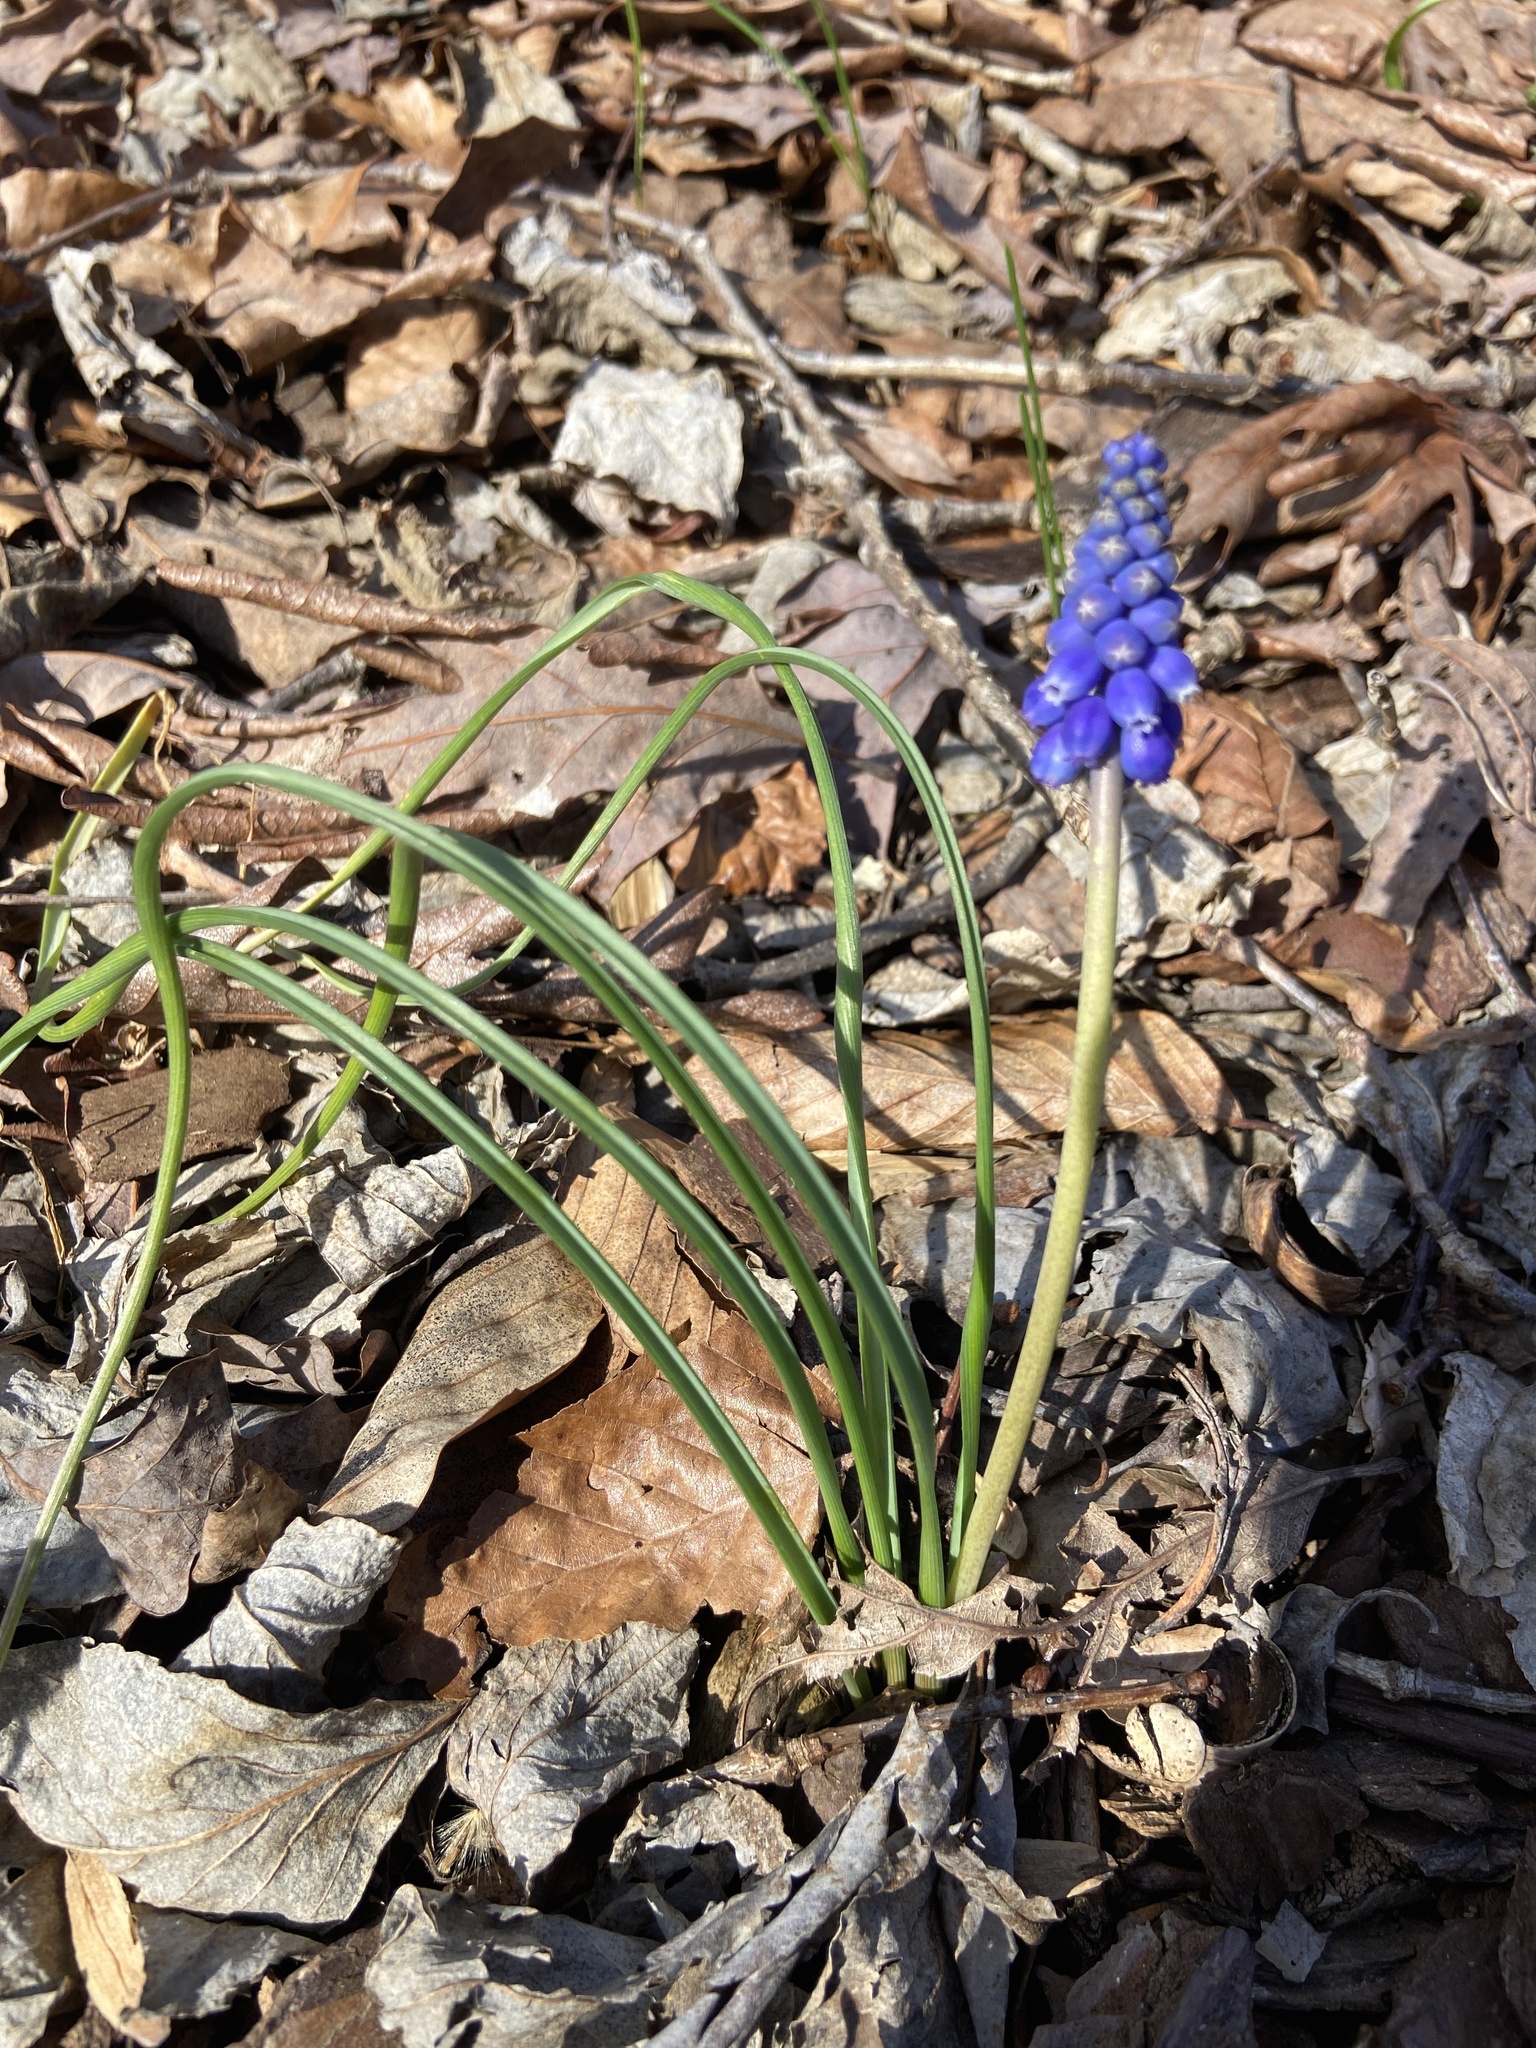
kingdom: Plantae
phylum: Tracheophyta
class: Liliopsida
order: Asparagales
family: Asparagaceae
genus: Muscari
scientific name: Muscari neglectum
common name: Grape-hyacinth
